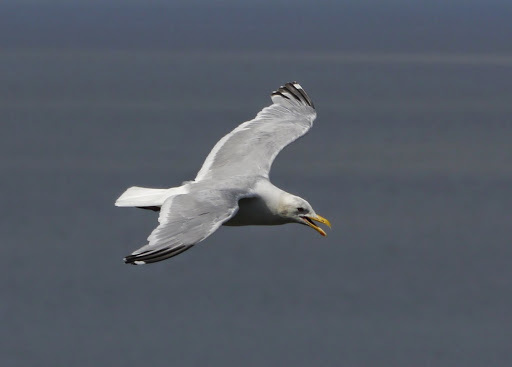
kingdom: Animalia
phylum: Chordata
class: Aves
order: Charadriiformes
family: Laridae
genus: Larus
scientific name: Larus argentatus
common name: Herring gull
